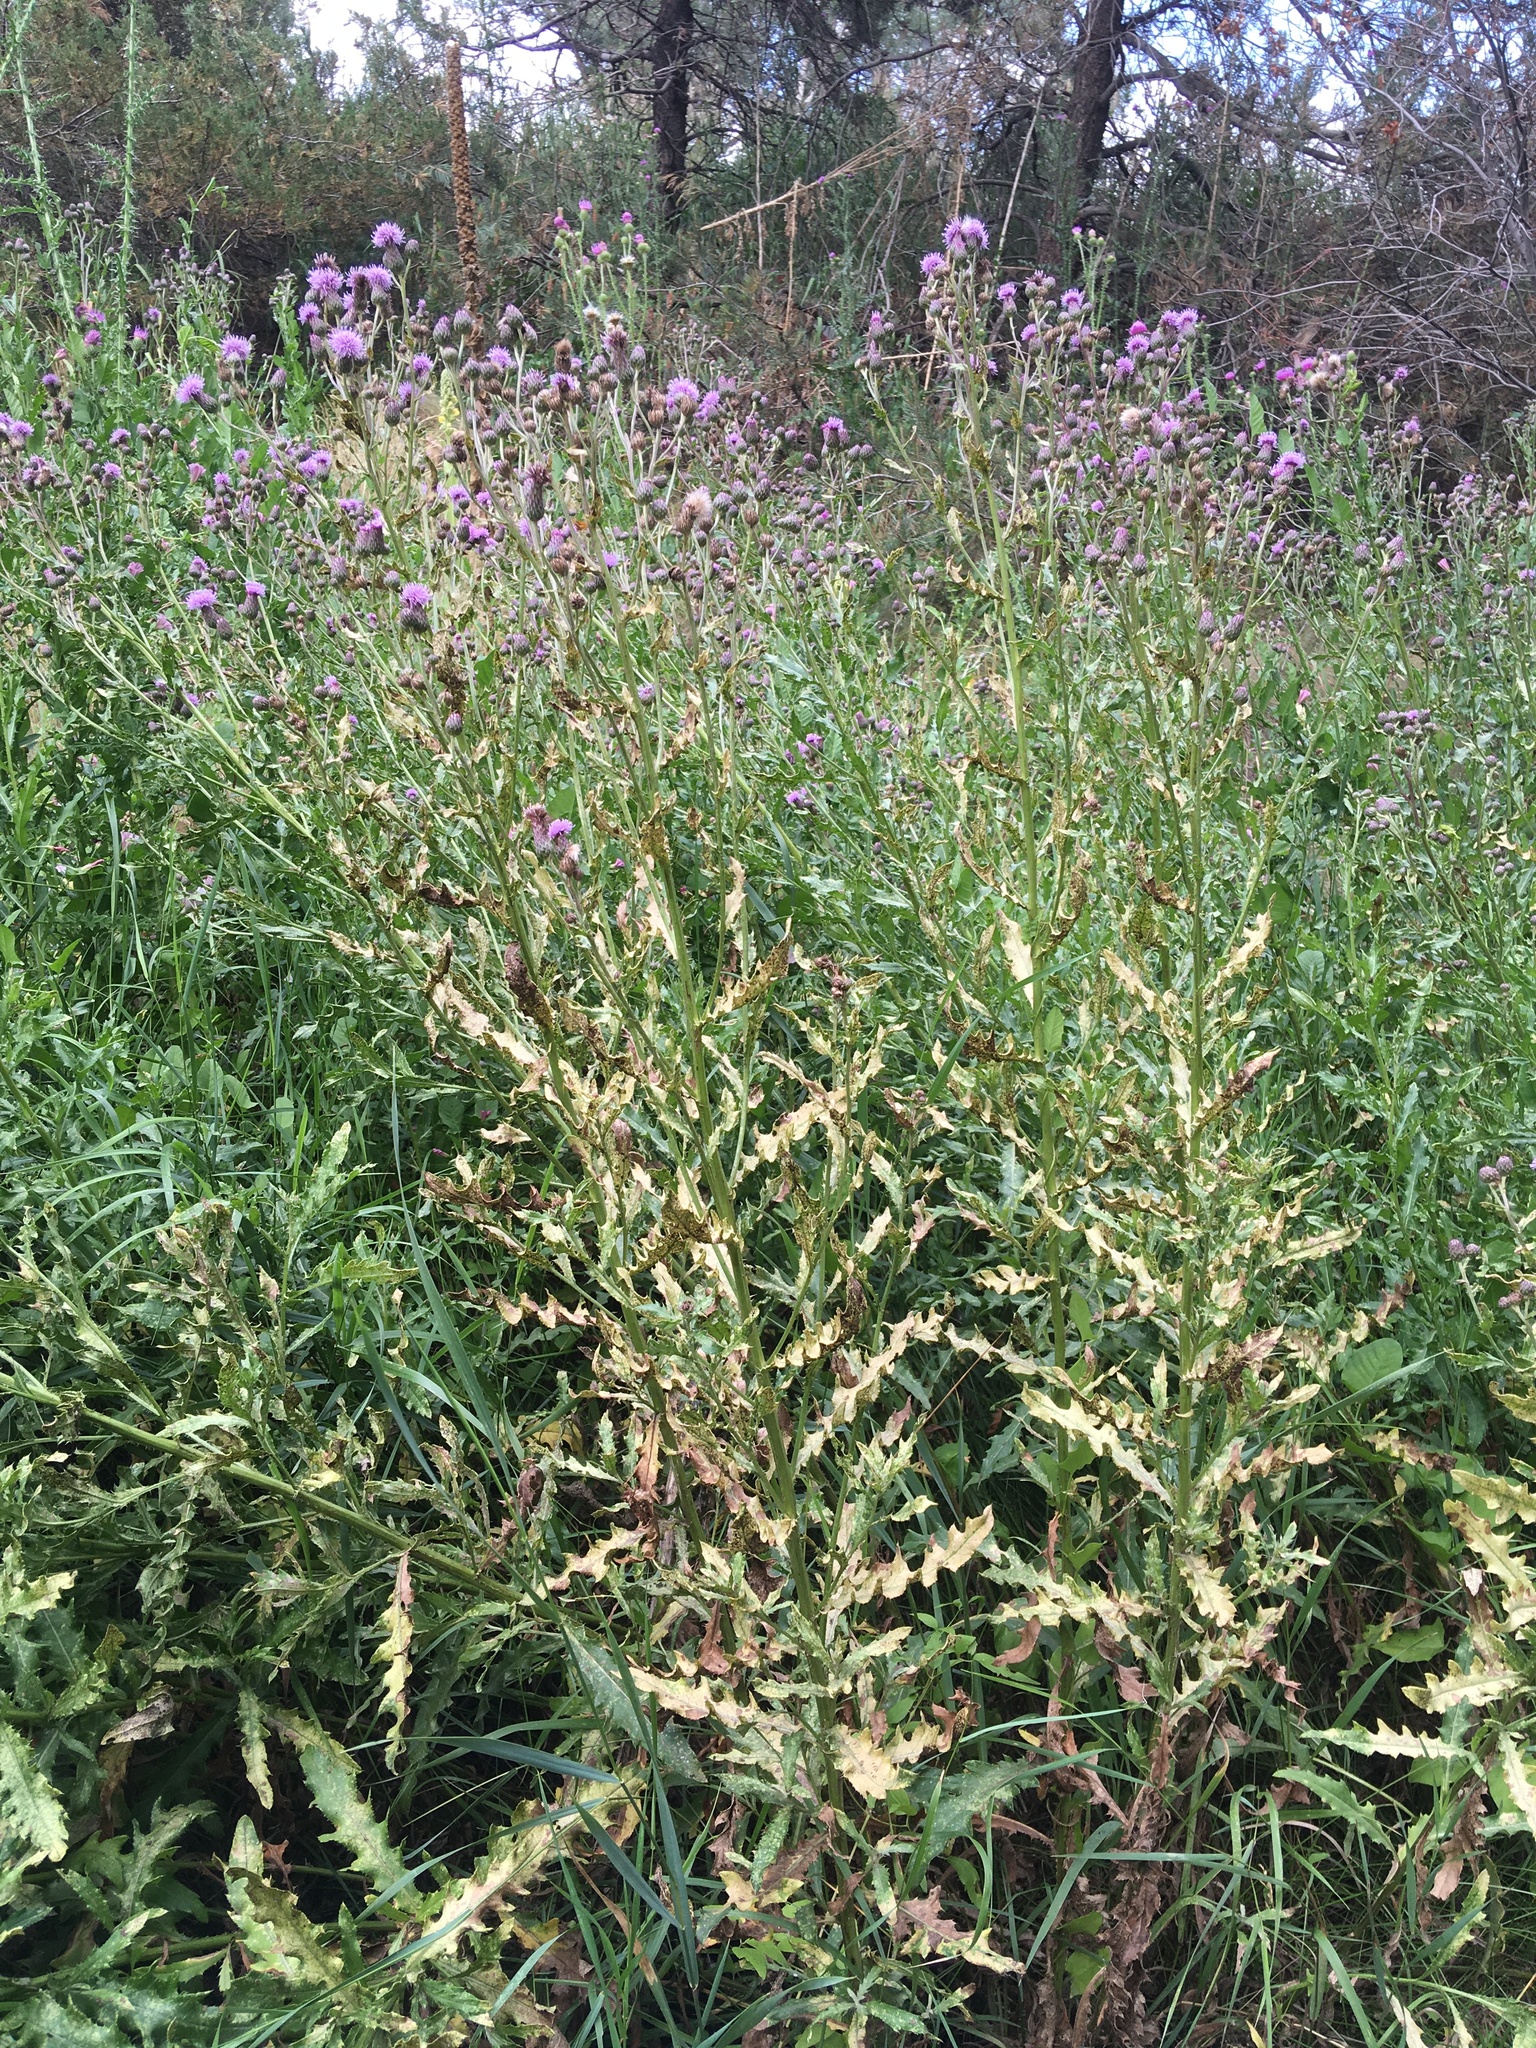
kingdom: Plantae
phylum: Tracheophyta
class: Magnoliopsida
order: Asterales
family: Asteraceae
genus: Cirsium
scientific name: Cirsium arvense
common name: Creeping thistle
